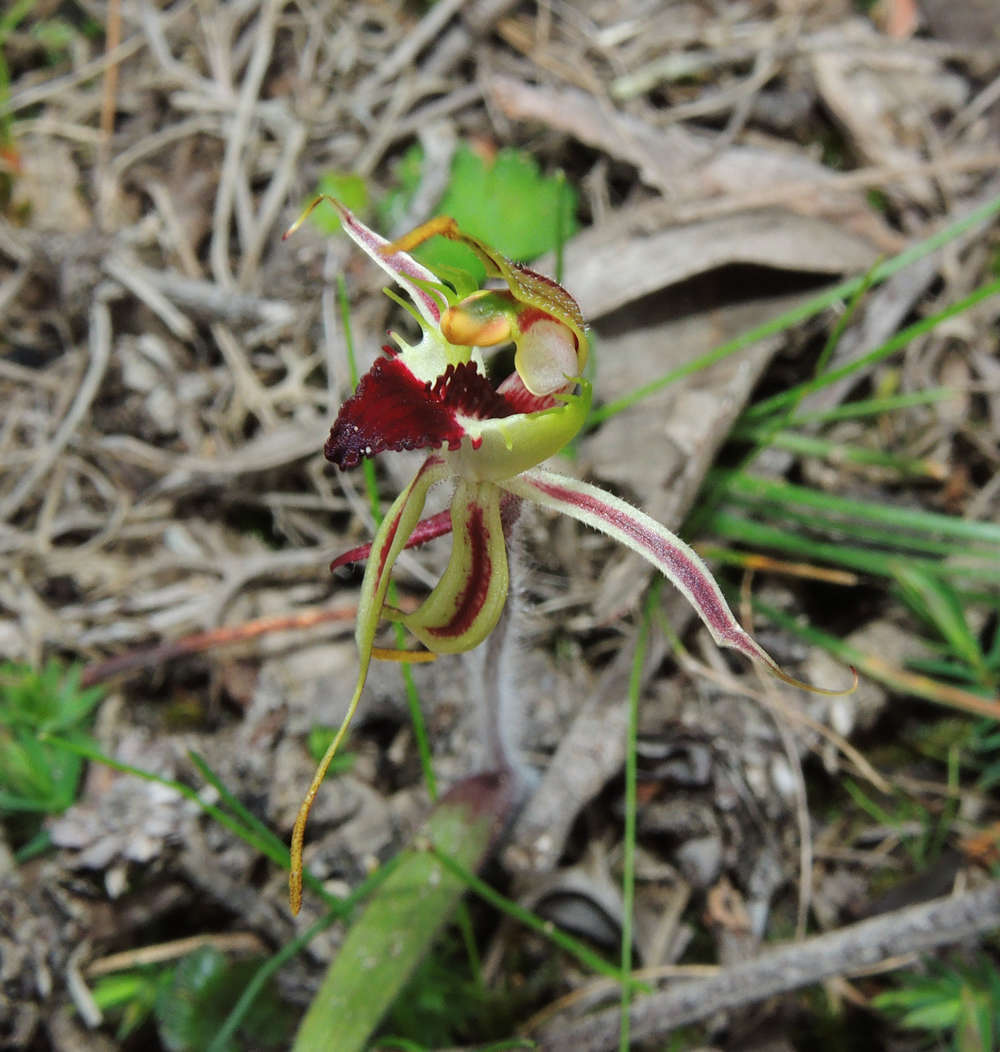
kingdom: Plantae
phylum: Tracheophyta
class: Liliopsida
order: Asparagales
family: Orchidaceae
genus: Caladenia
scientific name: Caladenia parva
